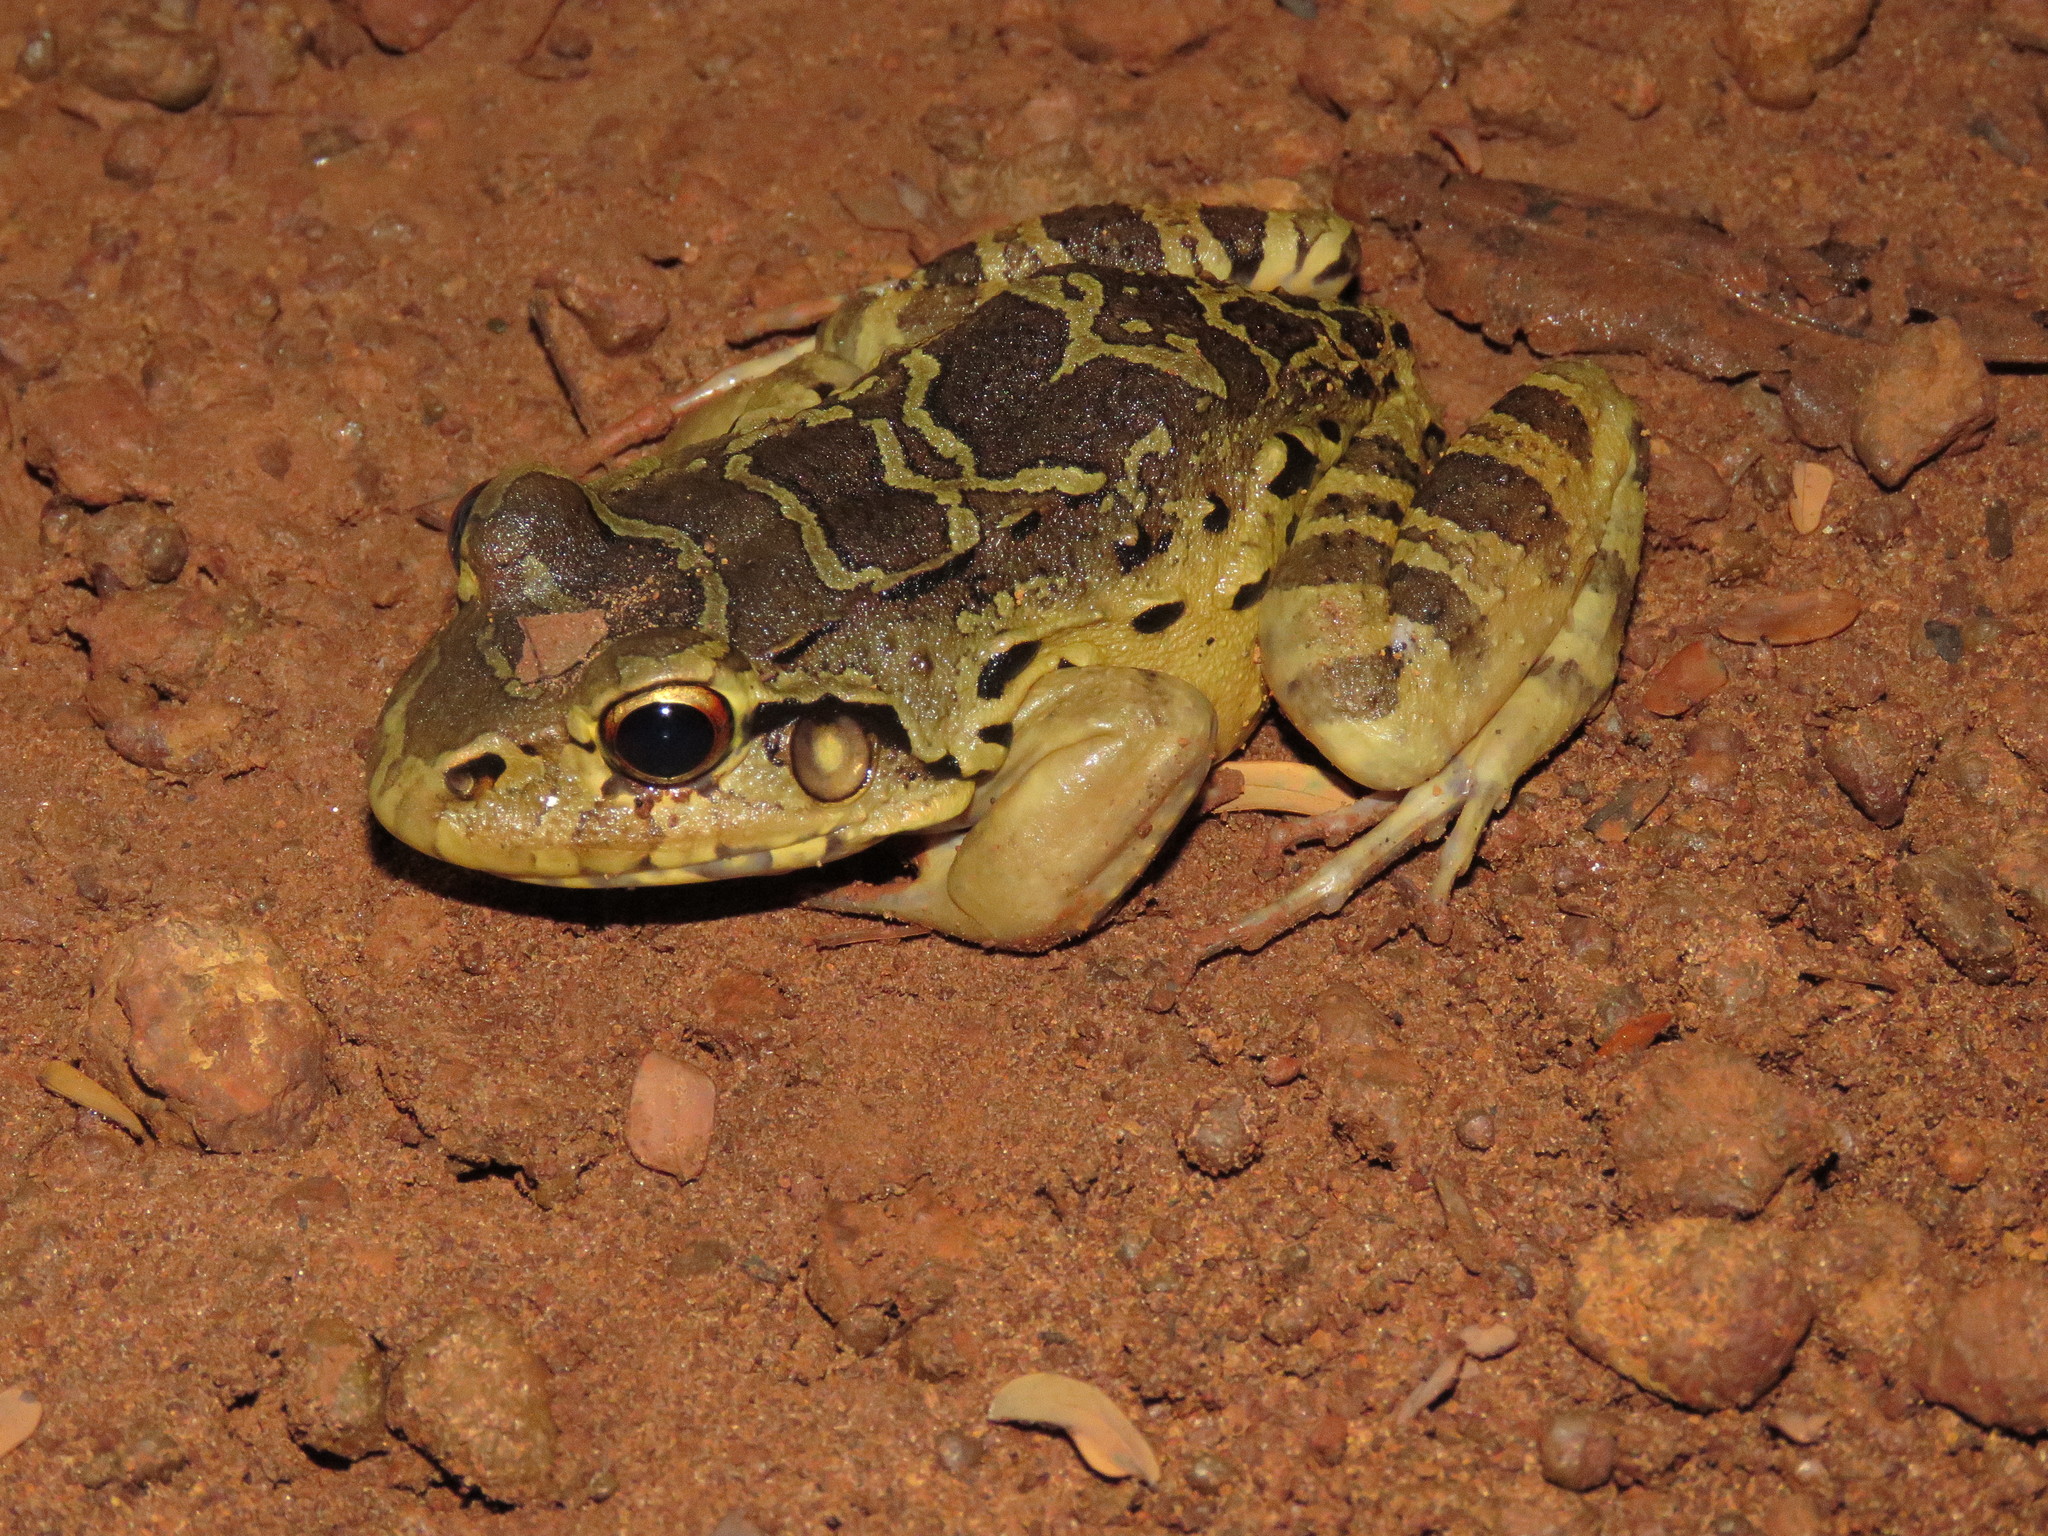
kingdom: Animalia
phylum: Chordata
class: Amphibia
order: Anura
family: Leptodactylidae
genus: Leptodactylus
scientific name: Leptodactylus knudseni
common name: Knudsen's frog
